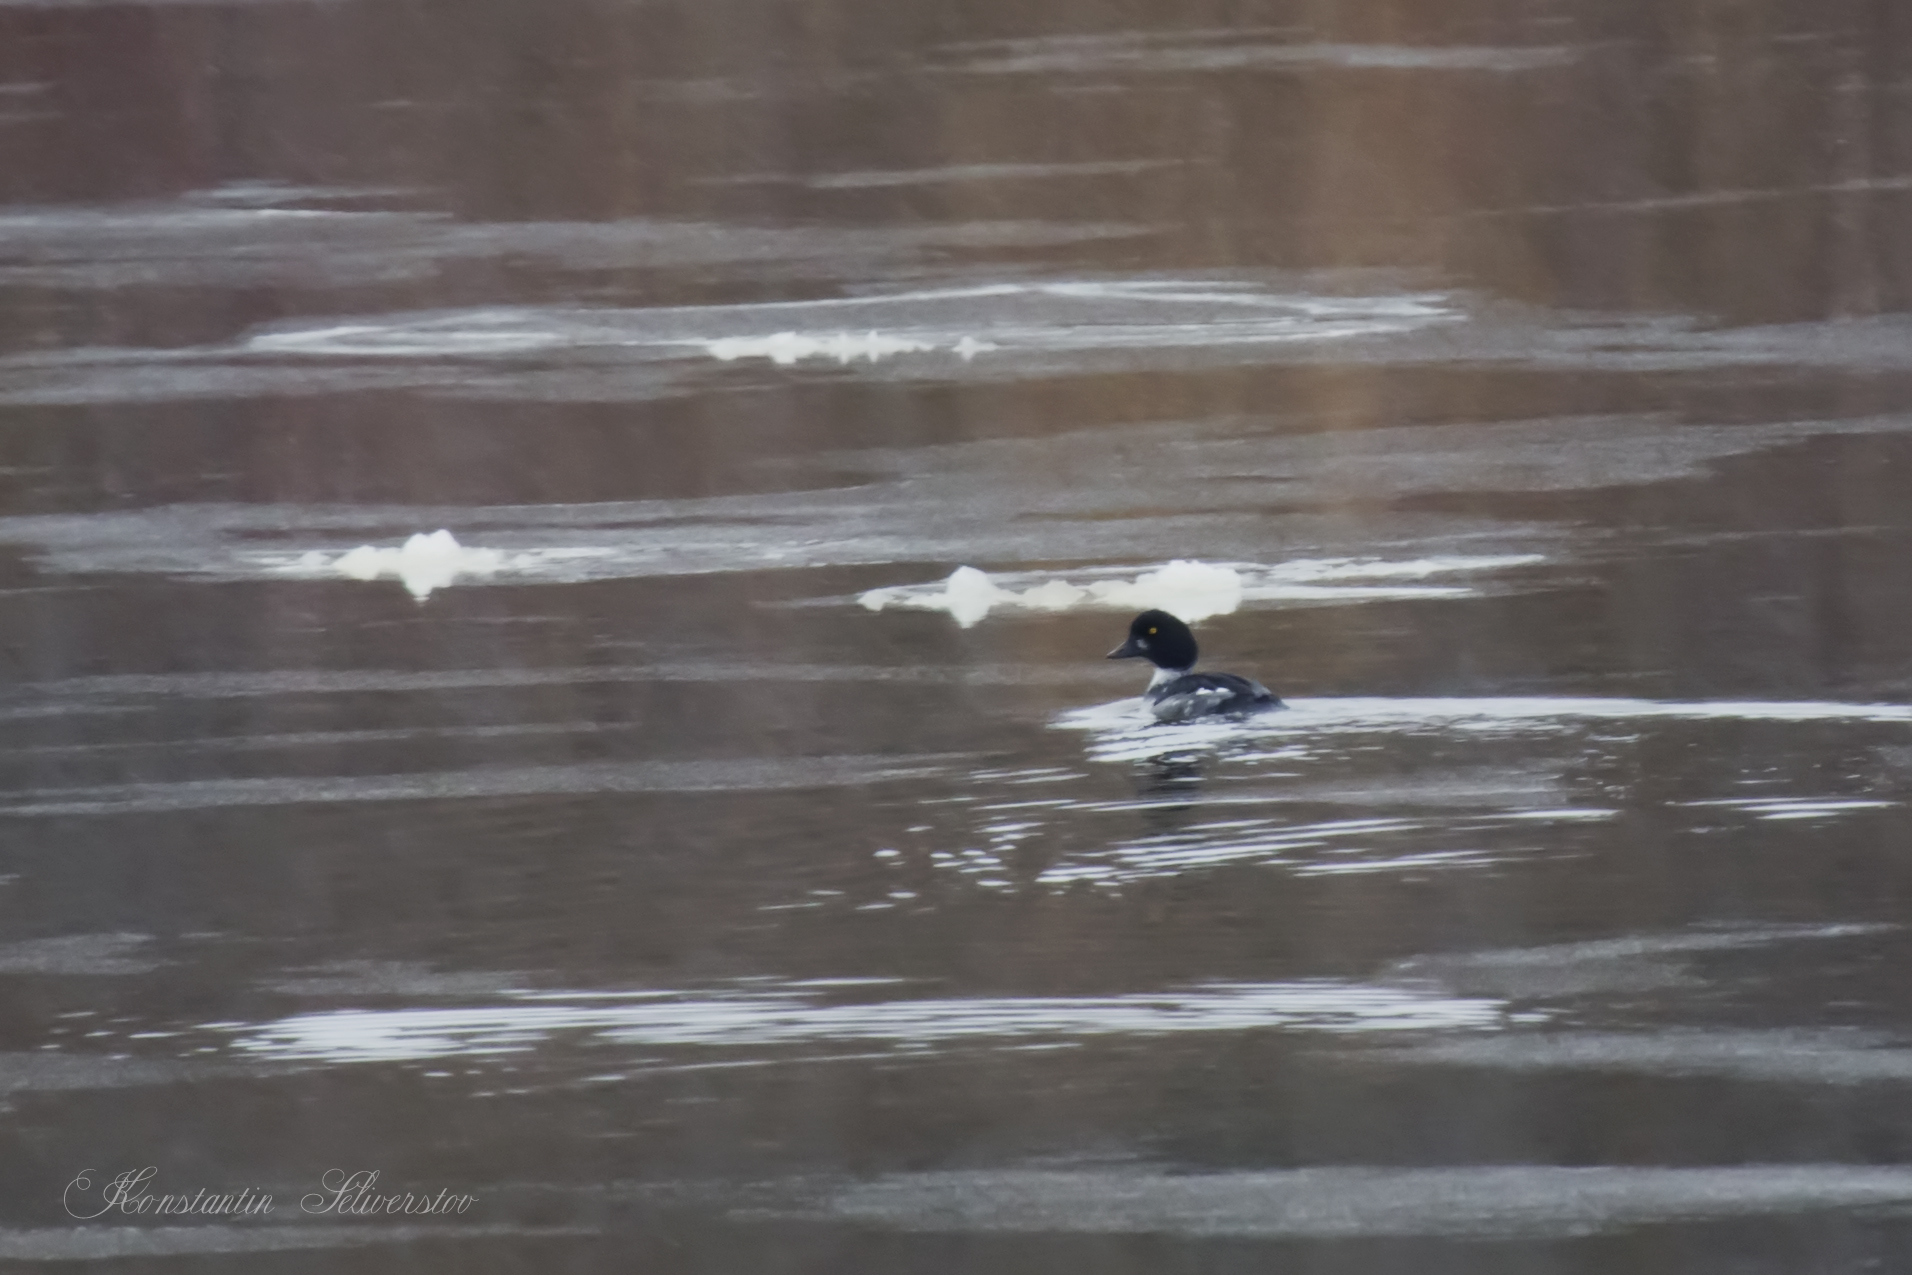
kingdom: Animalia
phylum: Chordata
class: Aves
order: Anseriformes
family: Anatidae
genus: Bucephala
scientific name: Bucephala clangula
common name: Common goldeneye
